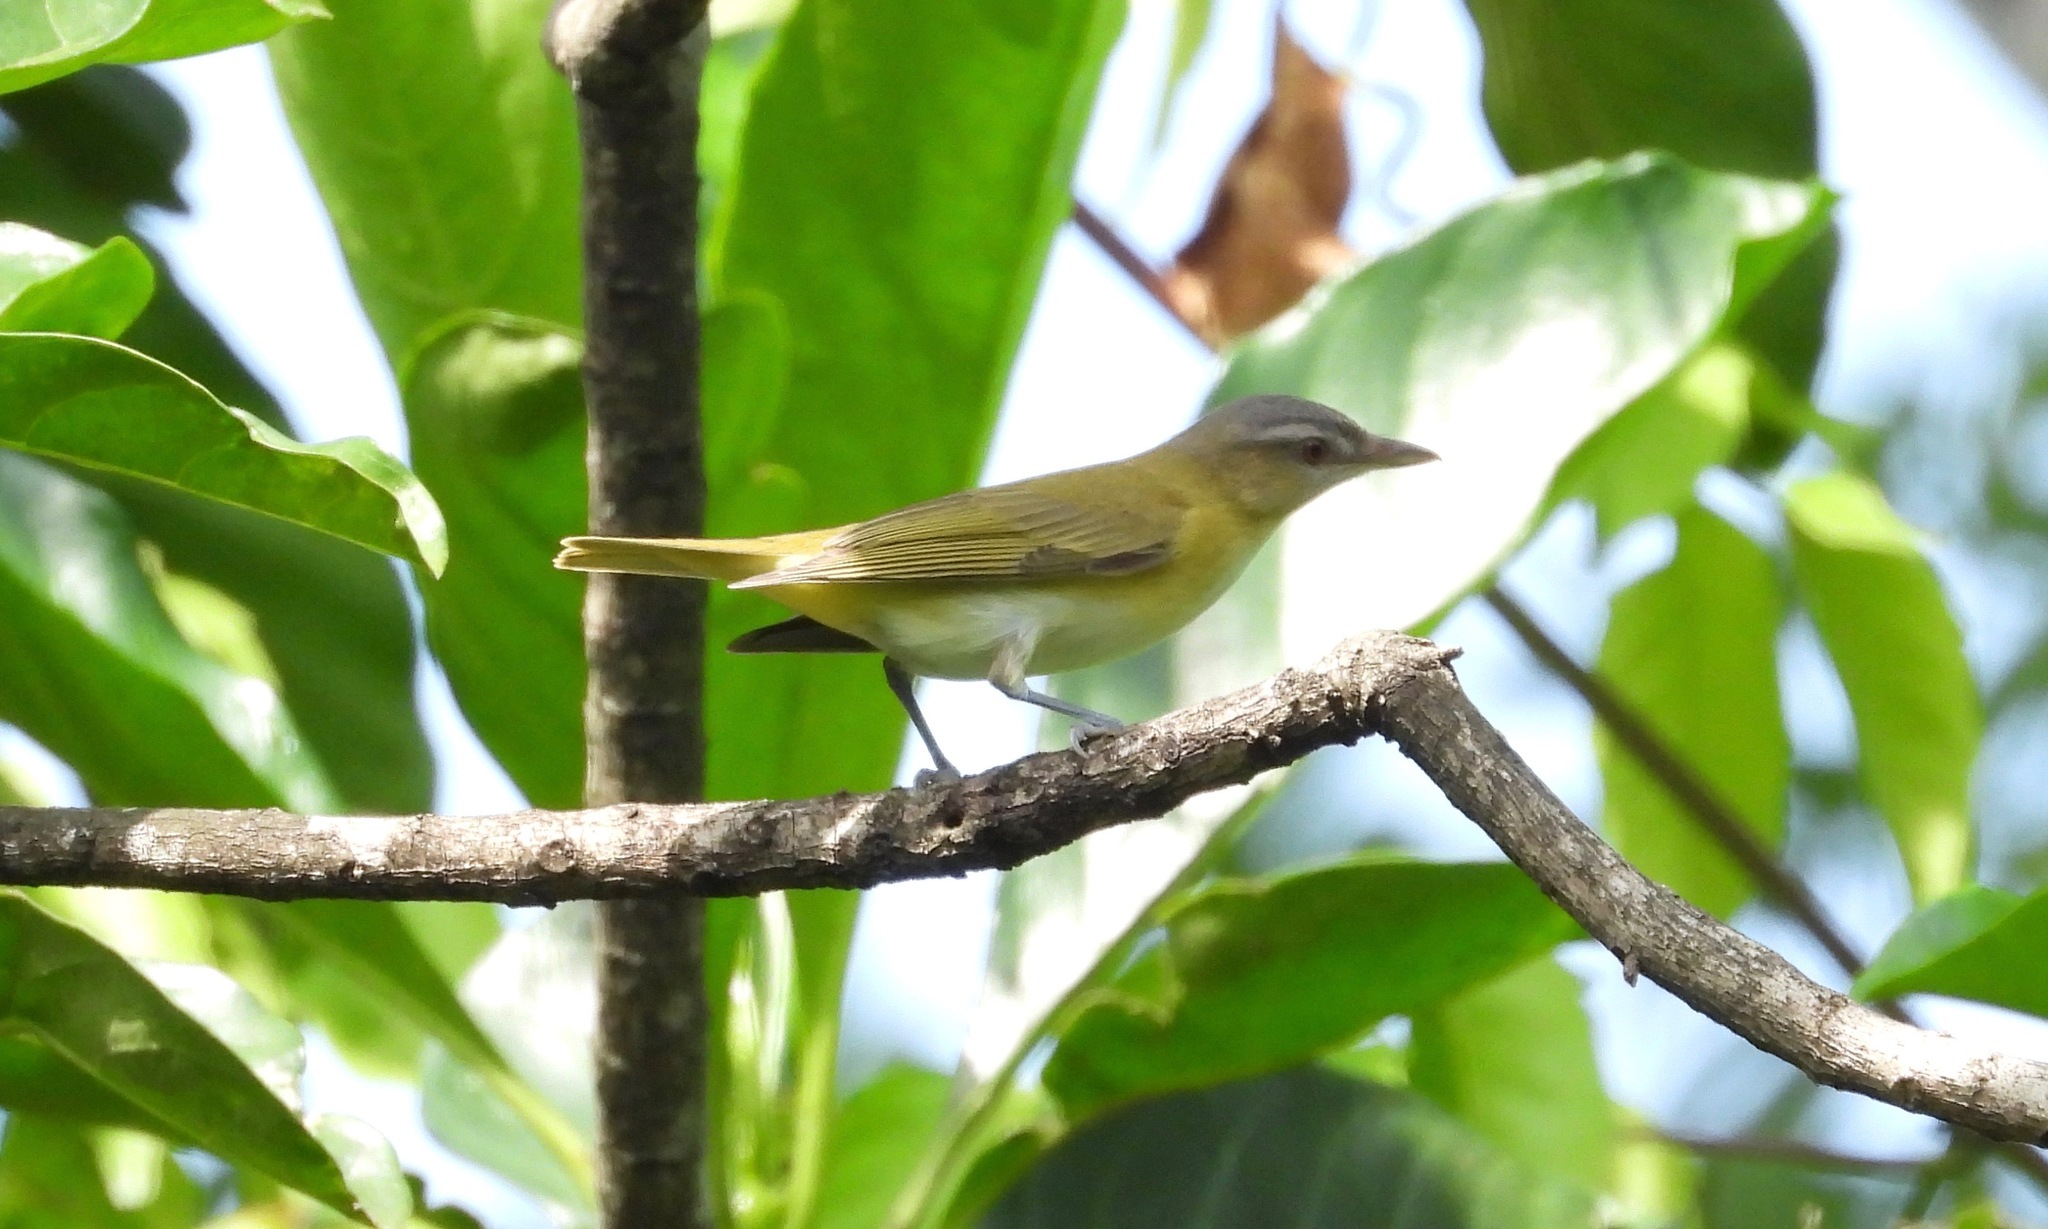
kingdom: Animalia
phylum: Chordata
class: Aves
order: Passeriformes
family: Vireonidae
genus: Vireo
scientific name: Vireo flavoviridis
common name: Yellow-green vireo
